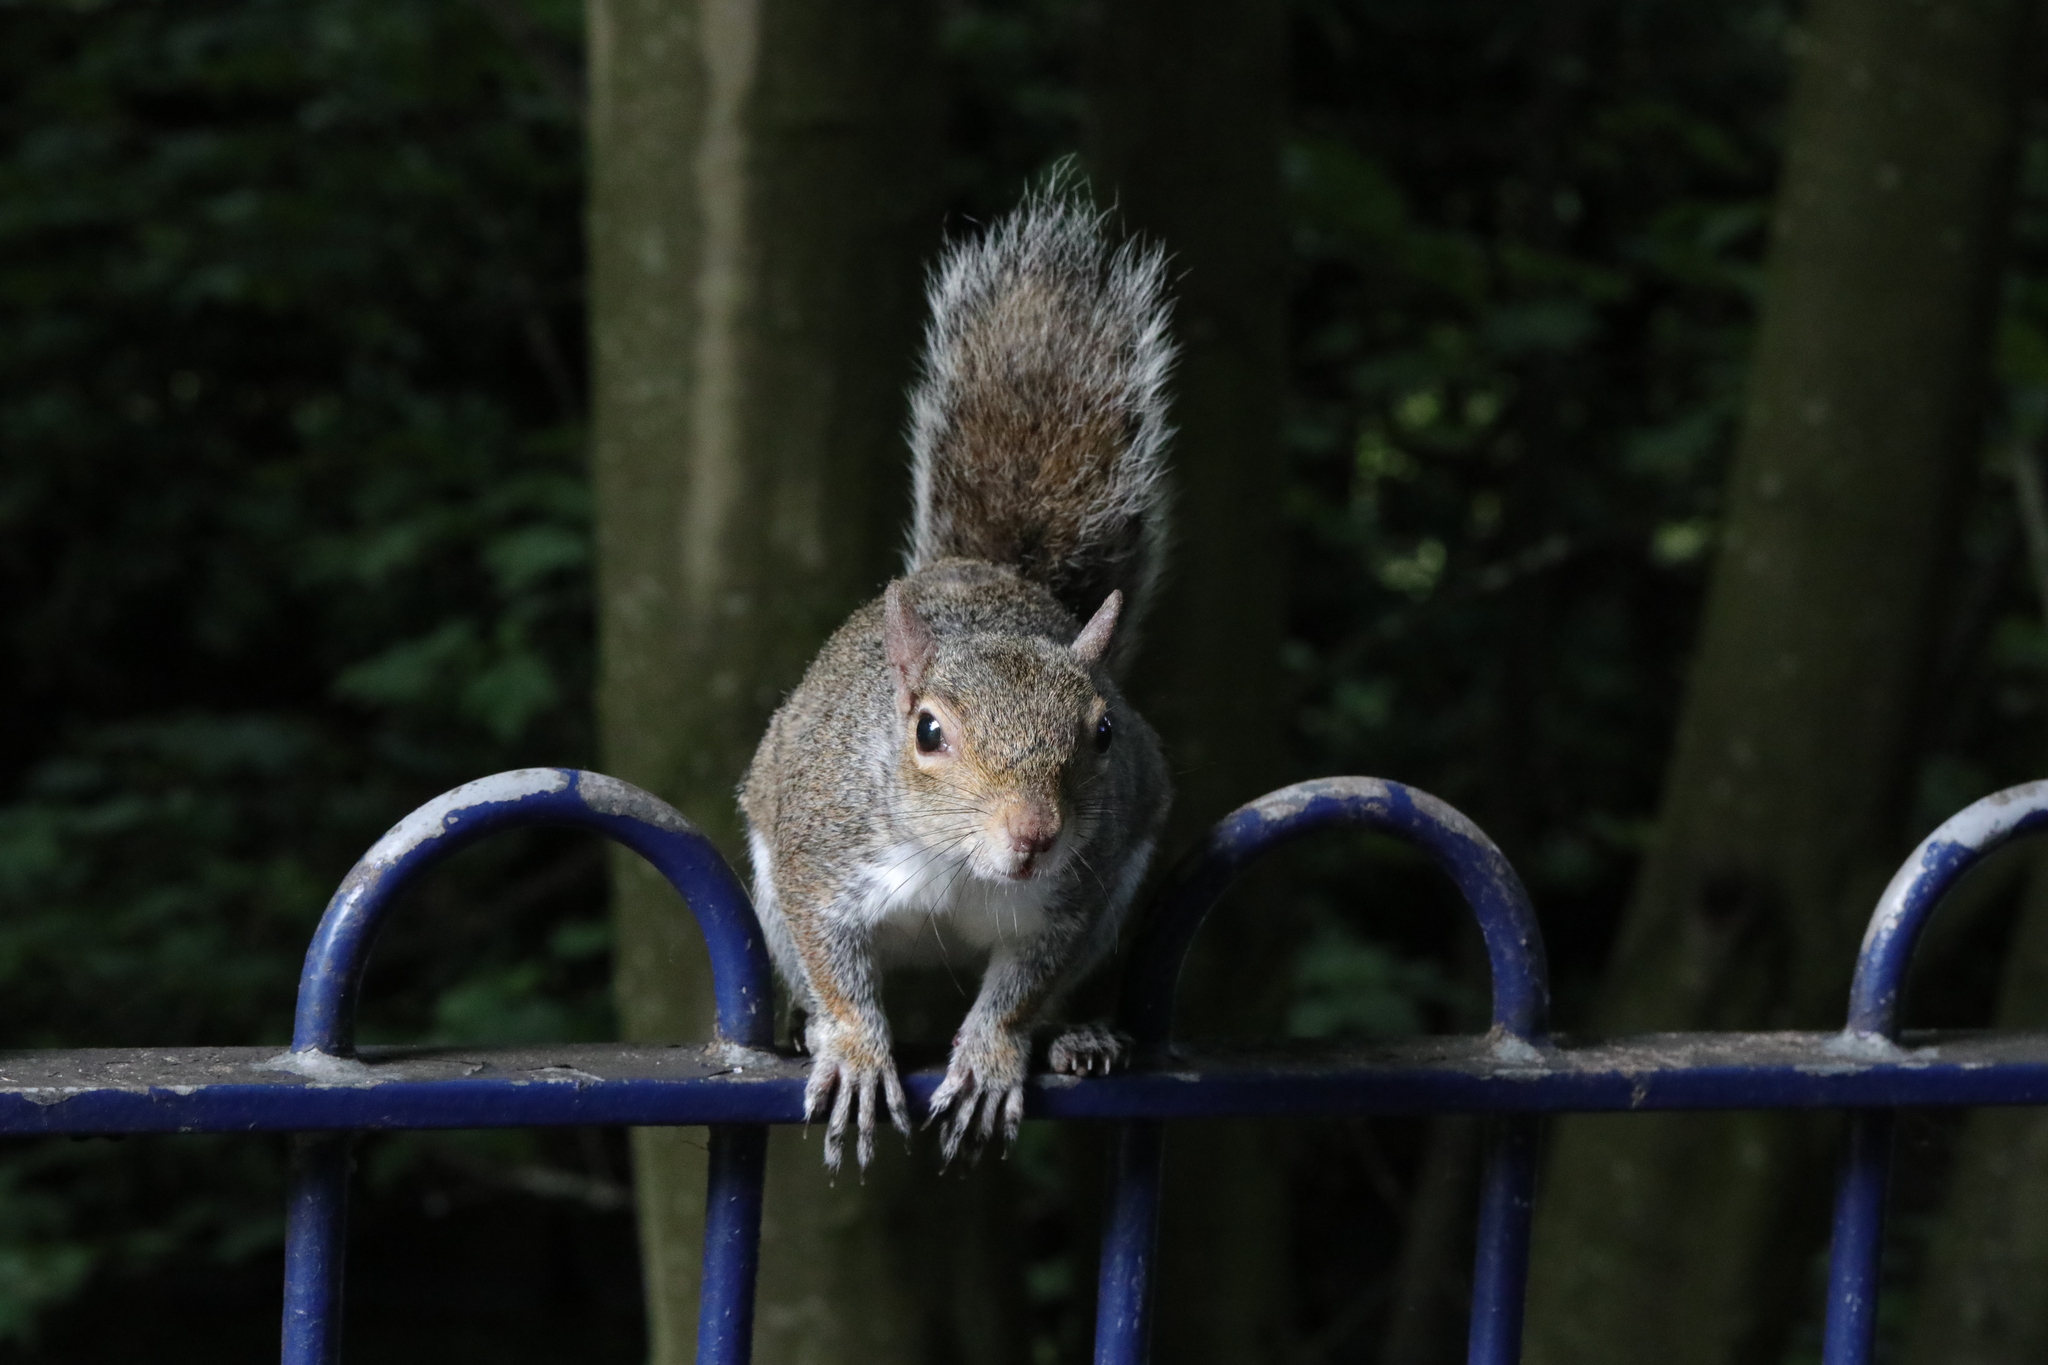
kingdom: Animalia
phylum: Chordata
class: Mammalia
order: Rodentia
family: Sciuridae
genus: Sciurus
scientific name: Sciurus carolinensis
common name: Eastern gray squirrel
